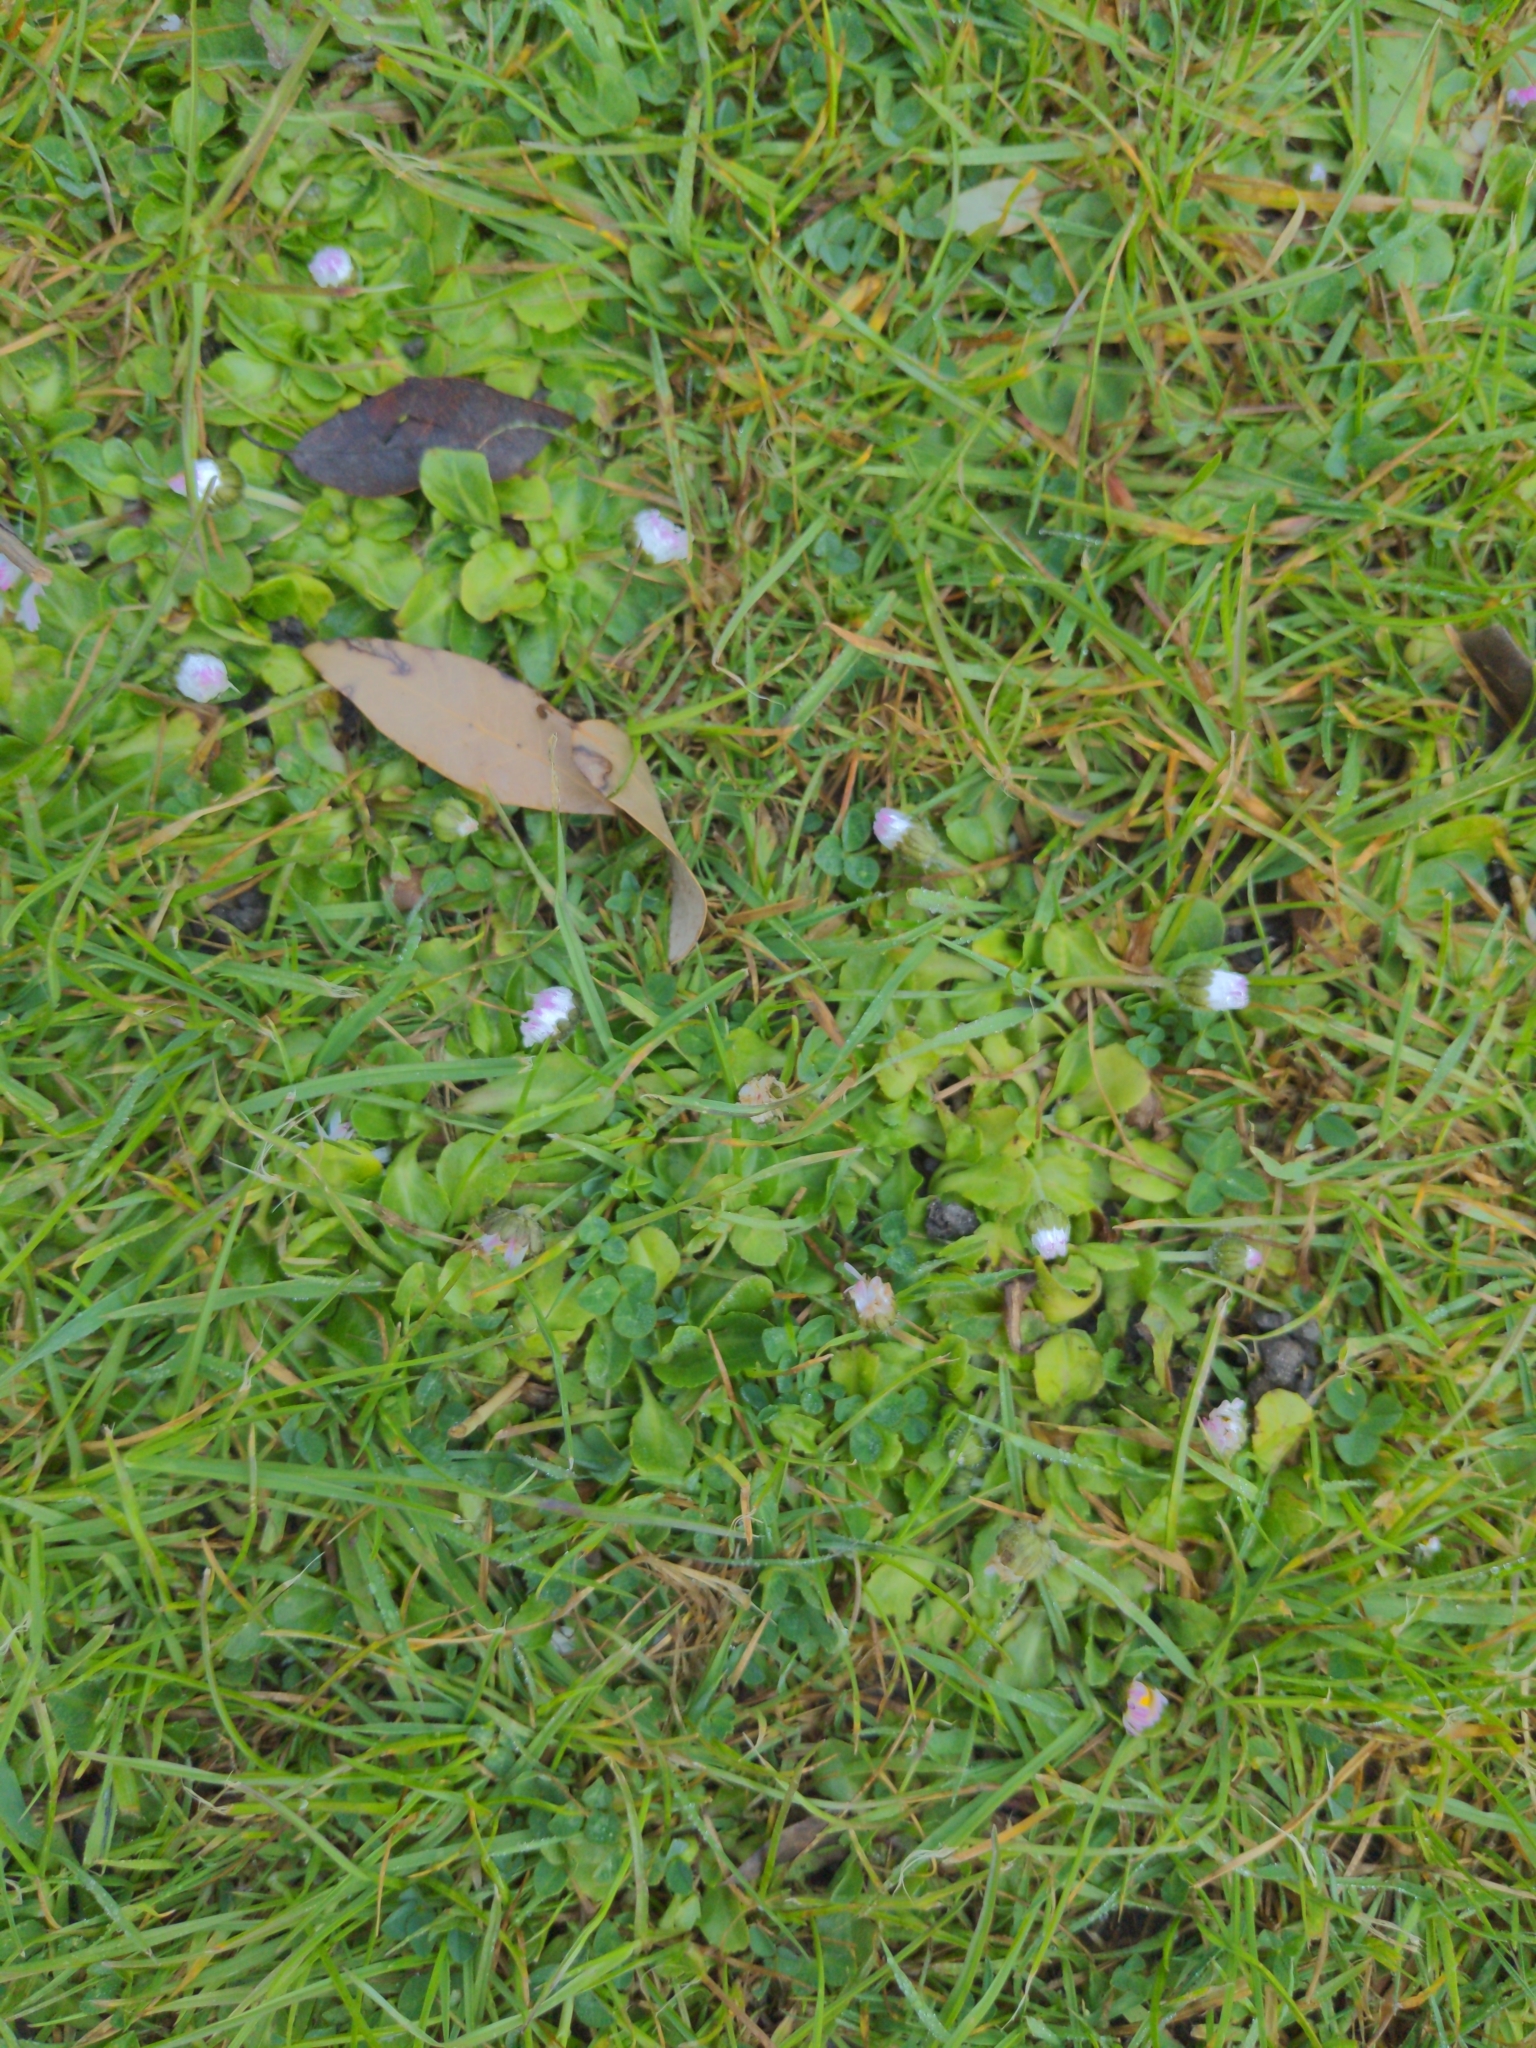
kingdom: Plantae
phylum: Tracheophyta
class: Magnoliopsida
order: Asterales
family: Asteraceae
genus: Bellis
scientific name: Bellis perennis
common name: Lawndaisy
